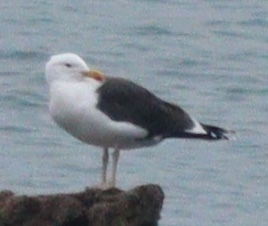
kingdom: Animalia
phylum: Chordata
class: Aves
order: Charadriiformes
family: Laridae
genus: Larus
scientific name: Larus marinus
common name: Great black-backed gull
